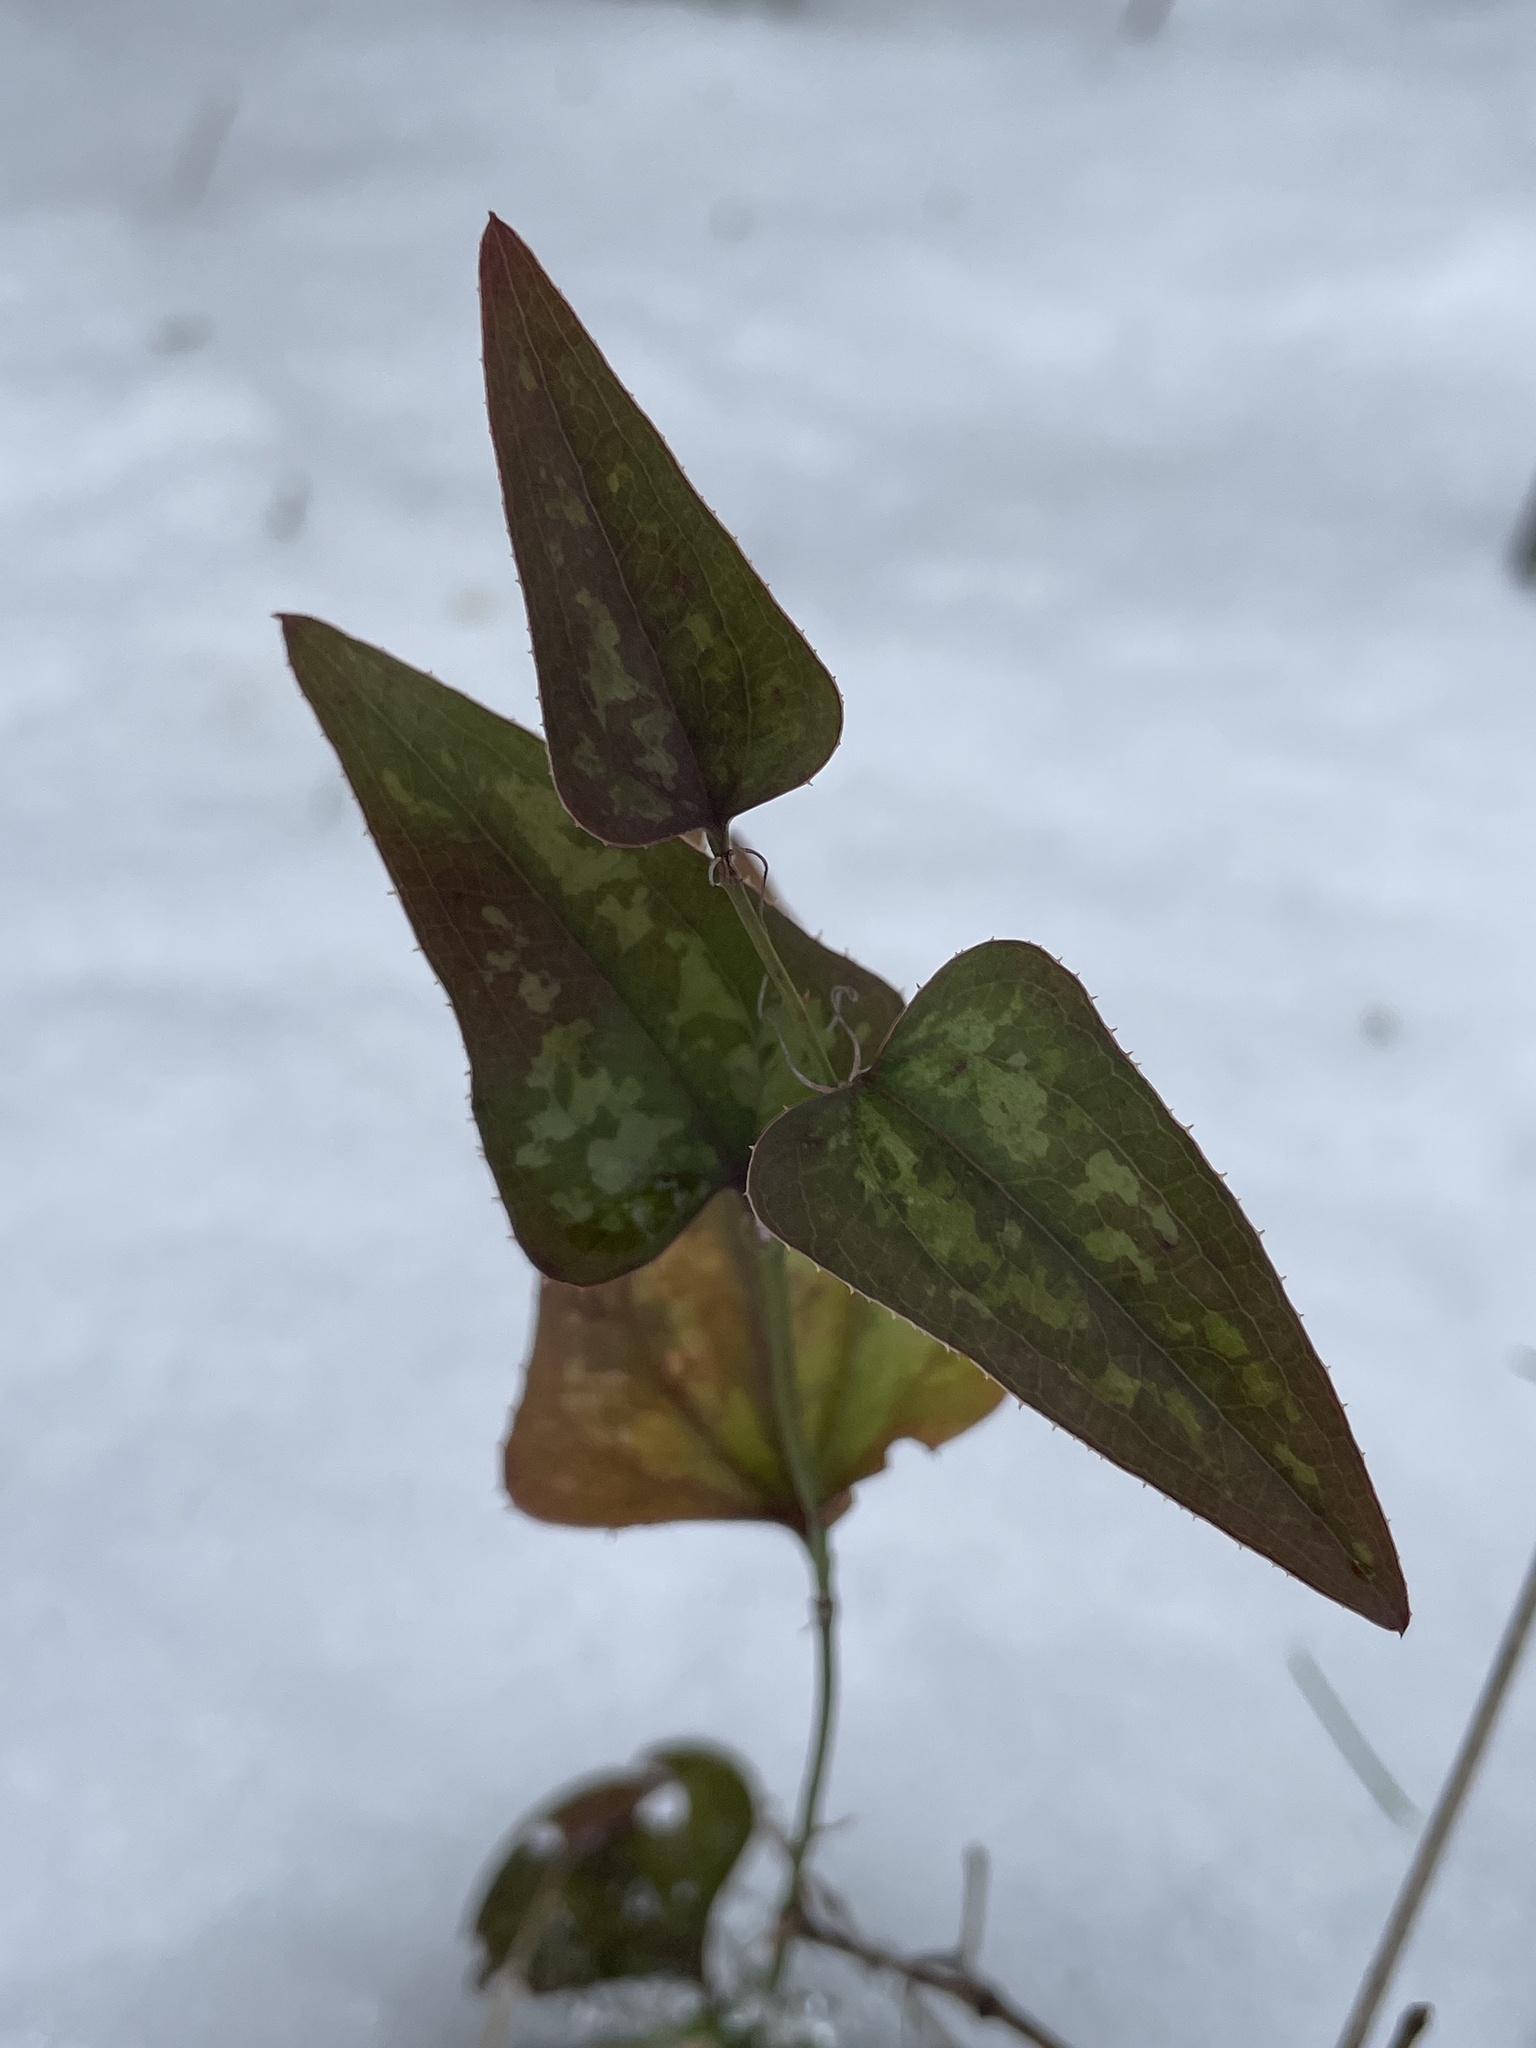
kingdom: Plantae
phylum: Tracheophyta
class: Liliopsida
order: Liliales
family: Smilacaceae
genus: Smilax
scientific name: Smilax bona-nox
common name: Catbrier
